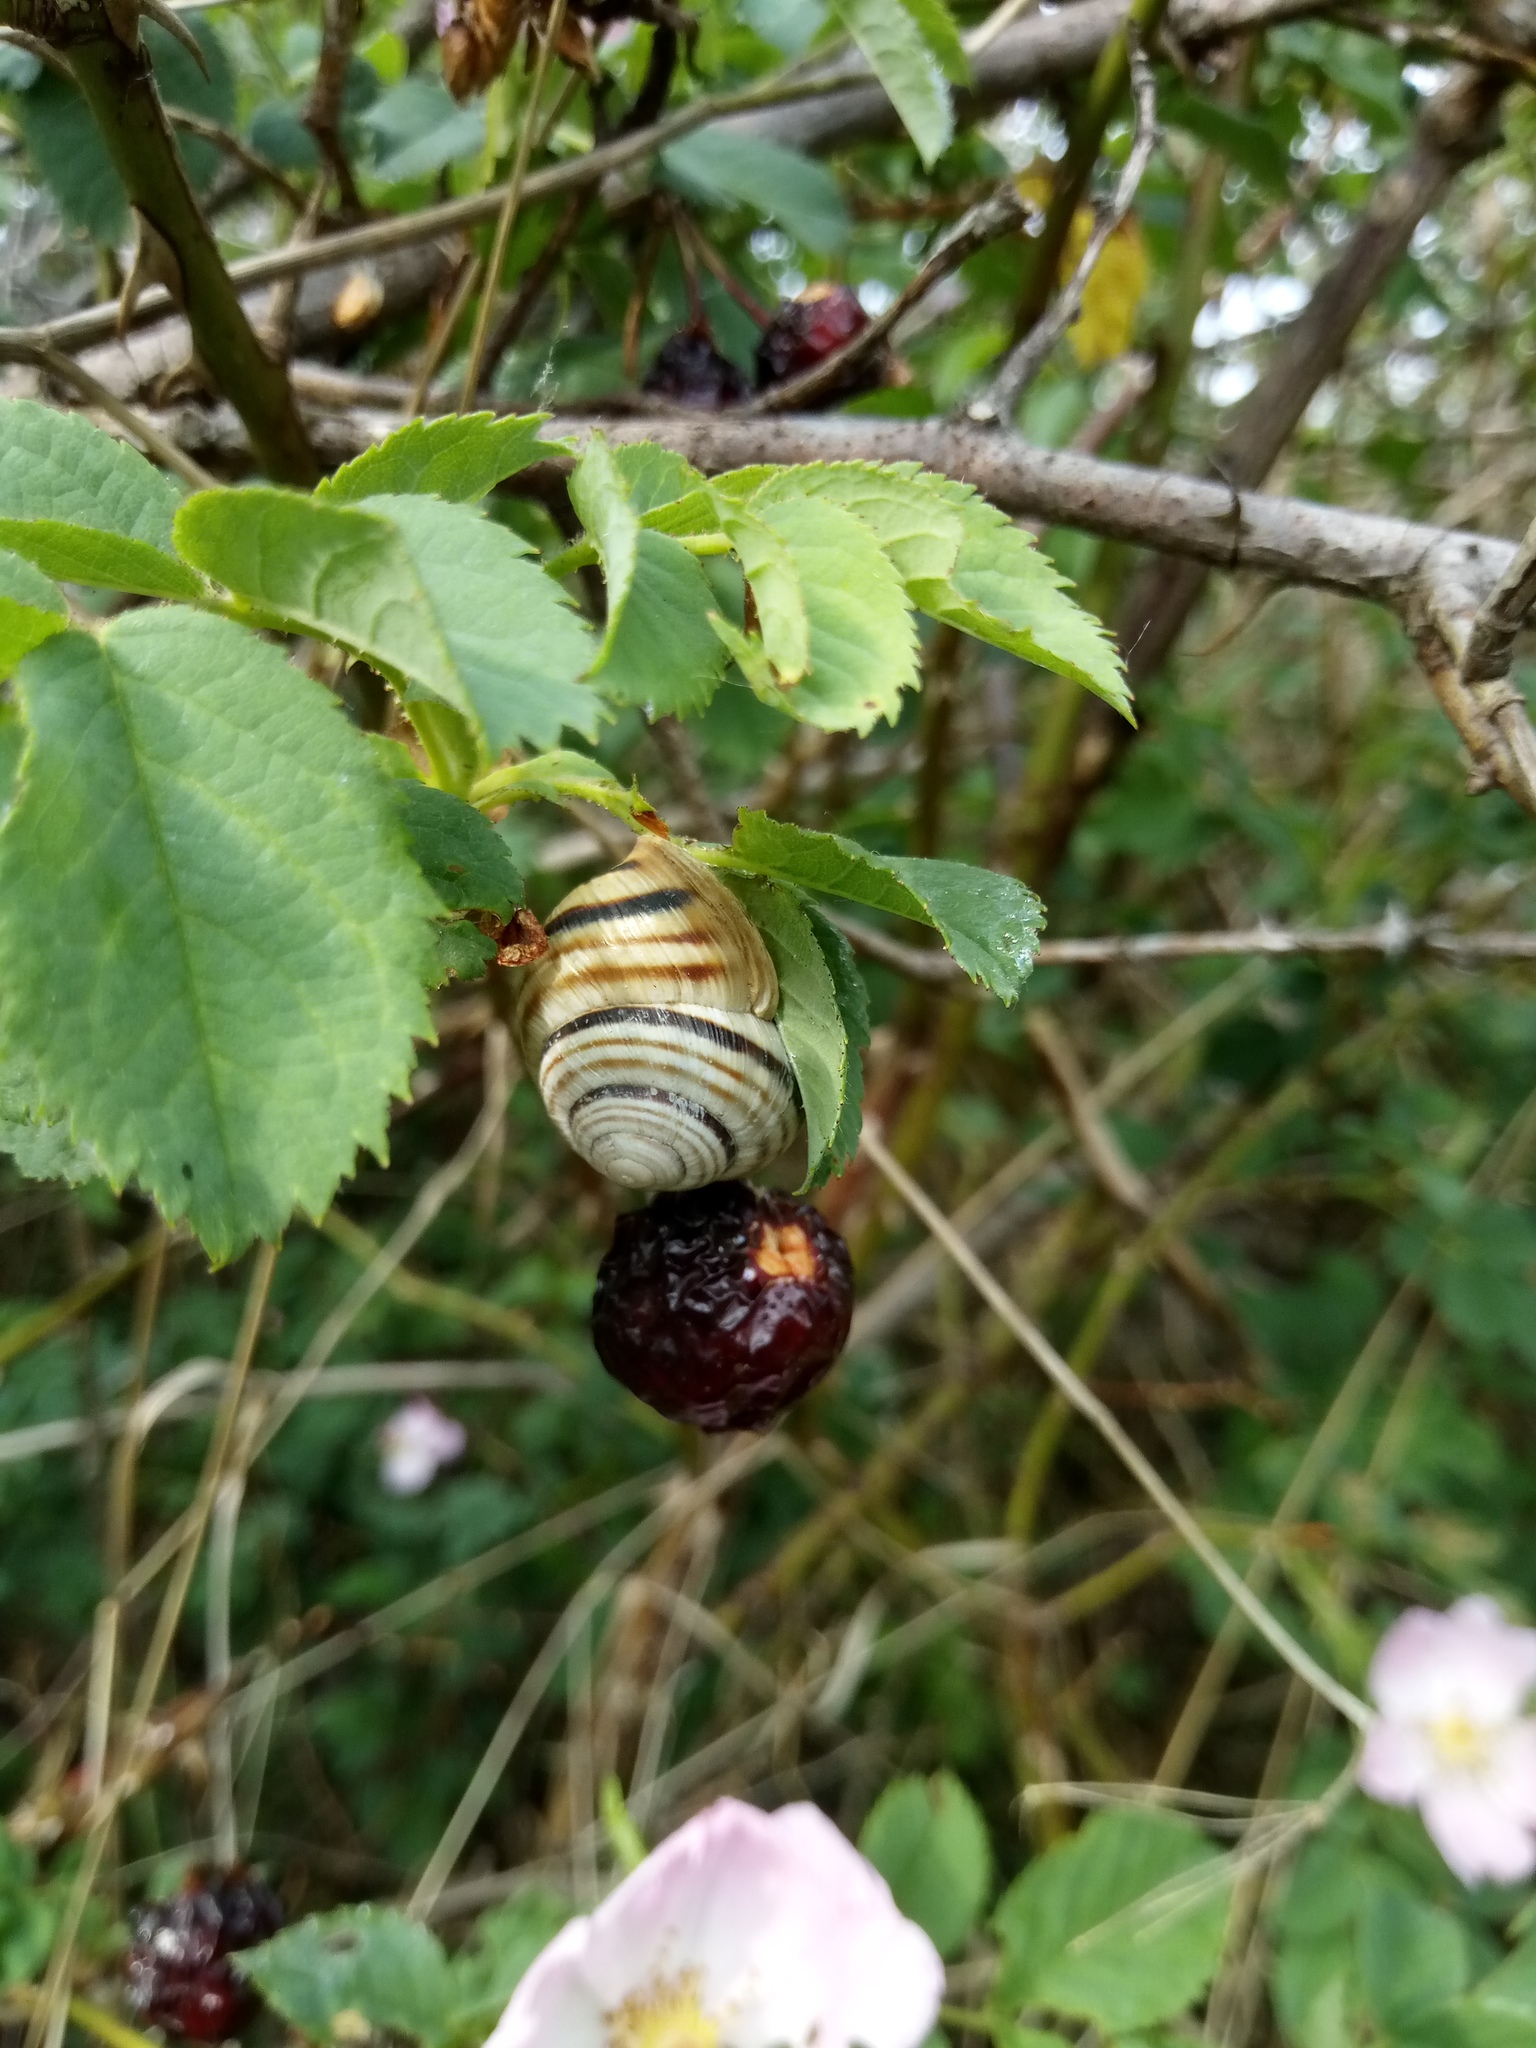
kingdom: Animalia
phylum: Mollusca
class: Gastropoda
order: Stylommatophora
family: Helicidae
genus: Caucasotachea
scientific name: Caucasotachea vindobonensis
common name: European helicid land snail
